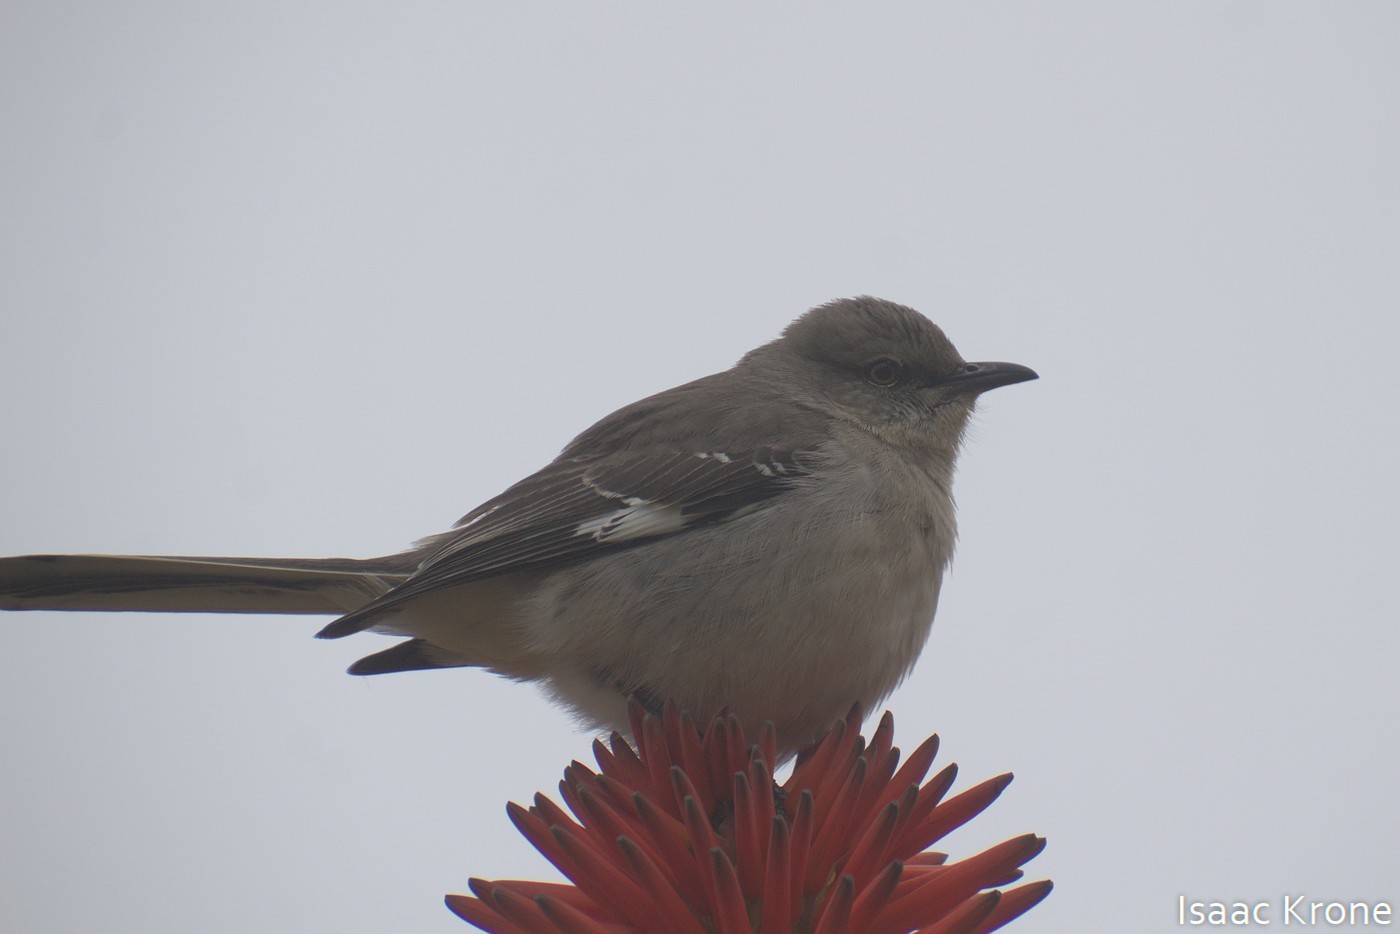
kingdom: Animalia
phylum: Chordata
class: Aves
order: Passeriformes
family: Mimidae
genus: Mimus
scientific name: Mimus polyglottos
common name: Northern mockingbird
